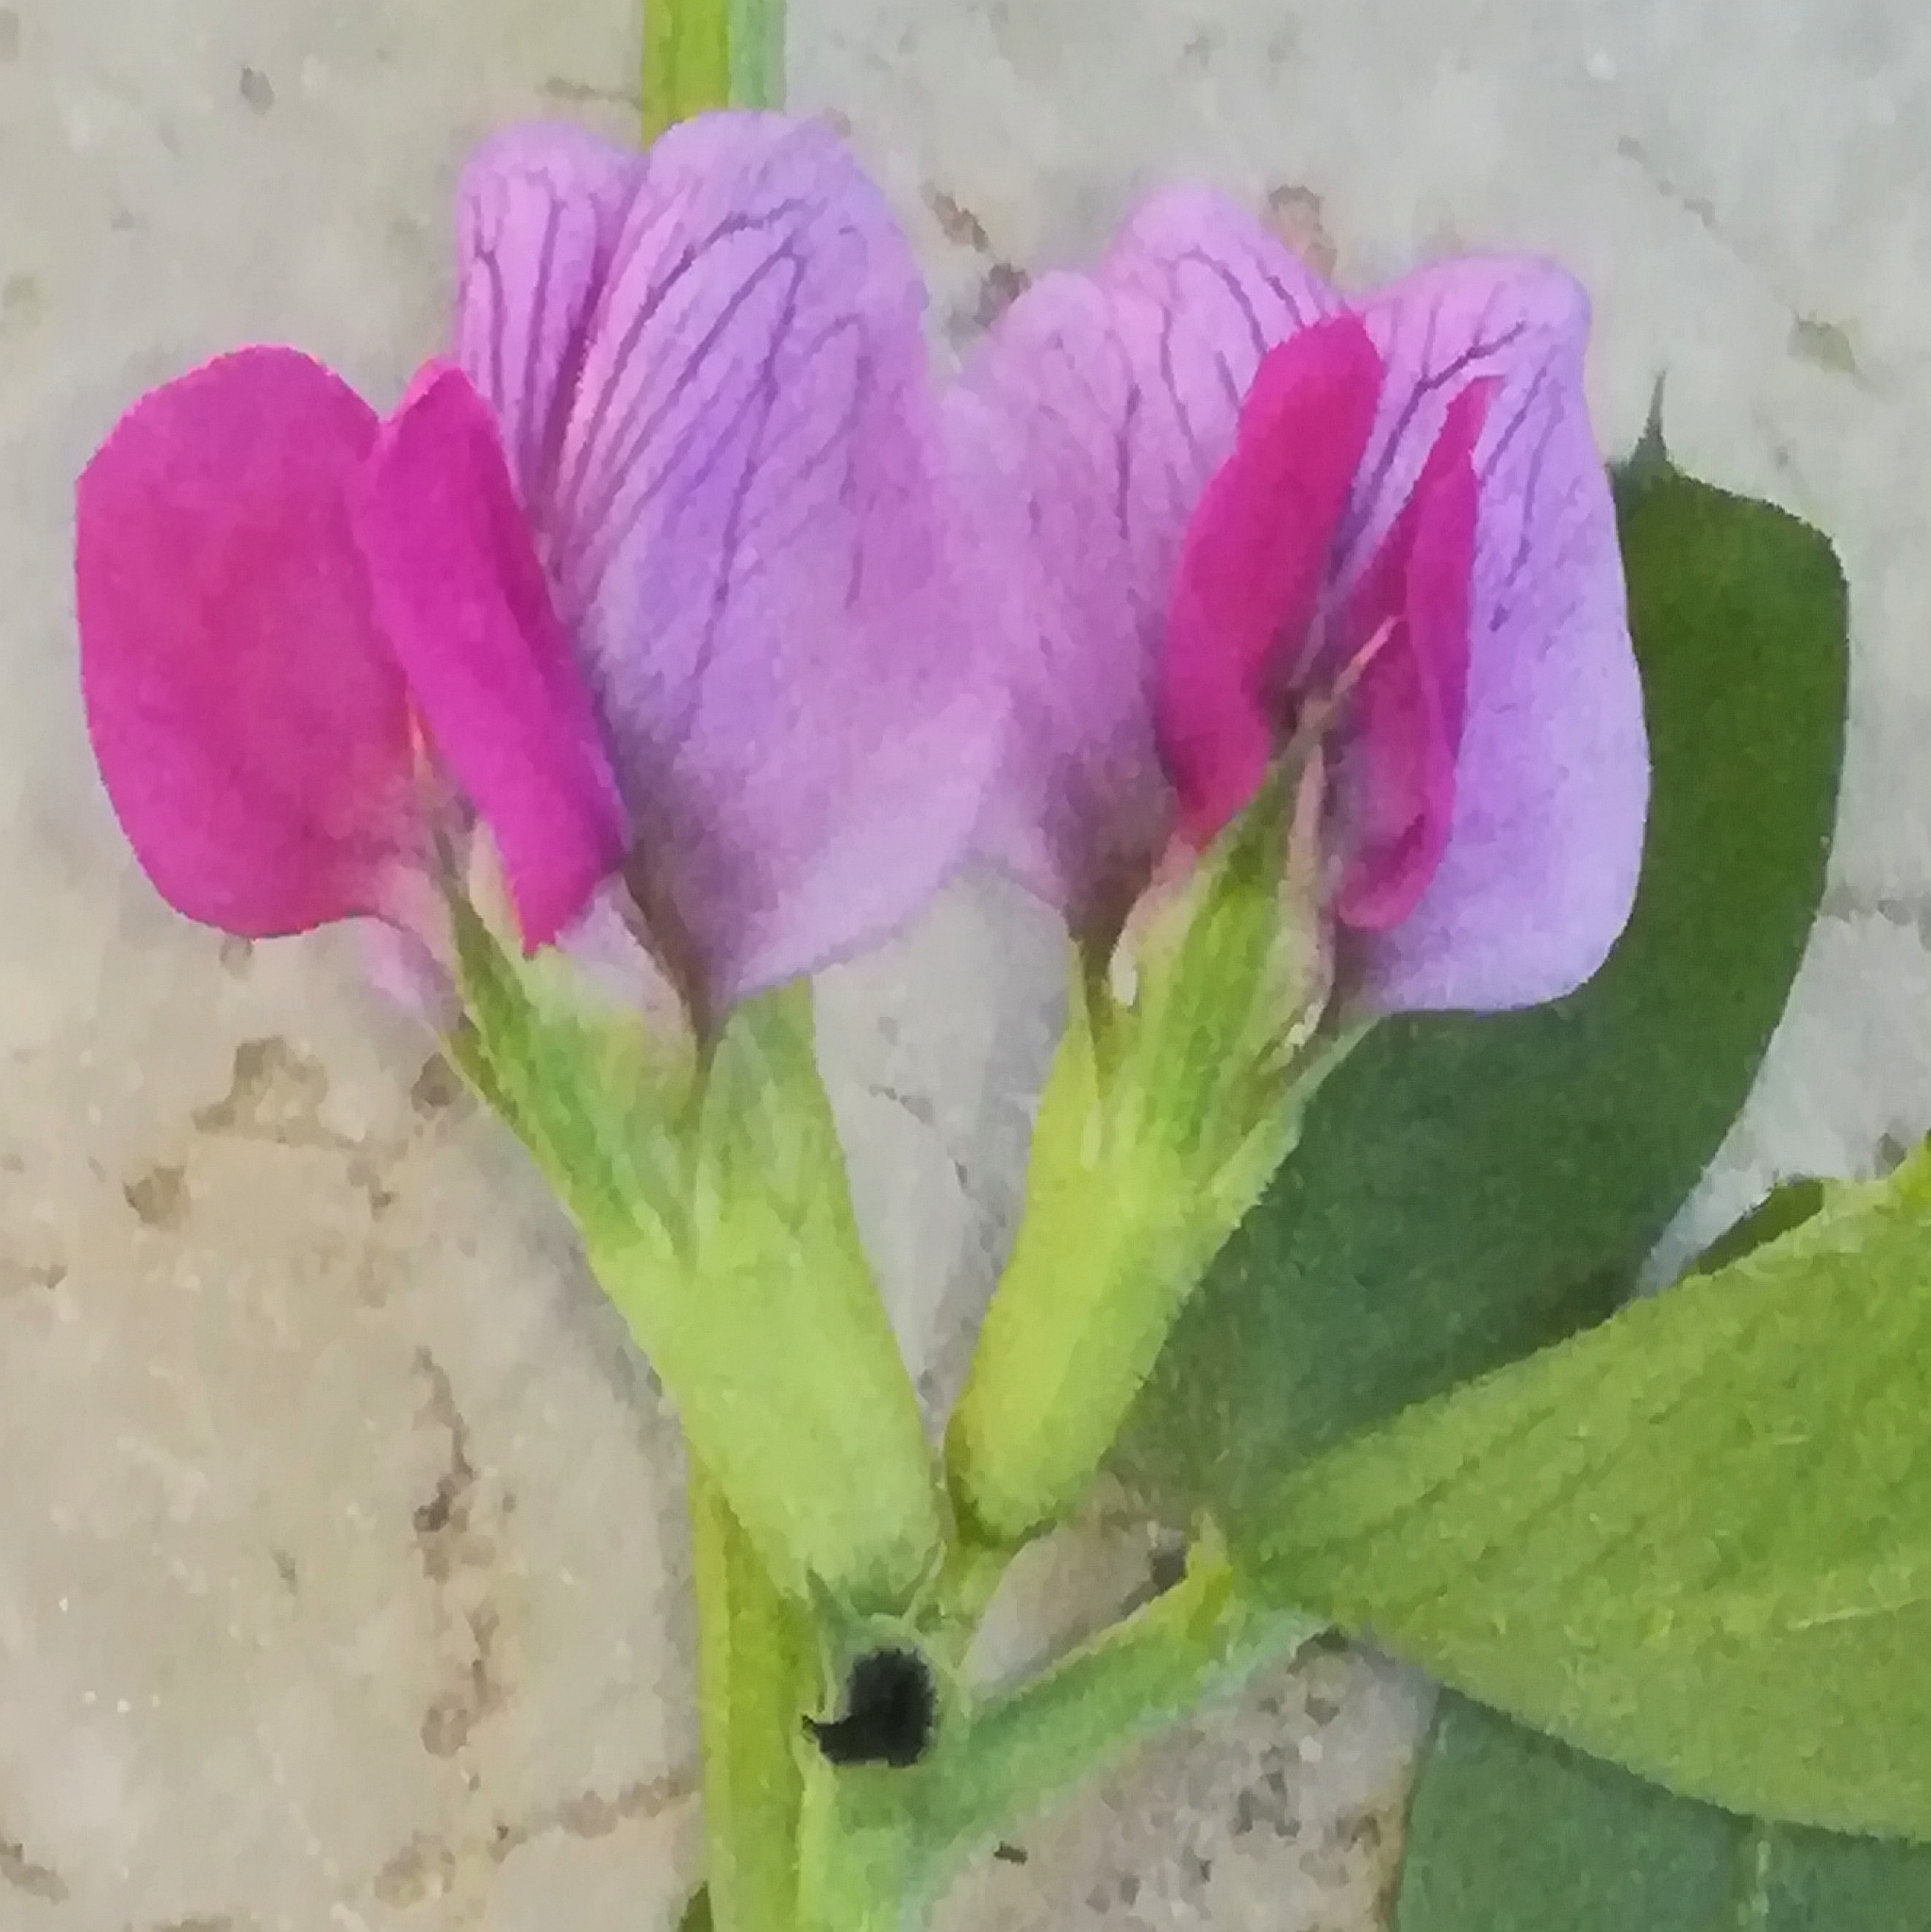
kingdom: Plantae
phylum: Tracheophyta
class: Magnoliopsida
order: Fabales
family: Fabaceae
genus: Vicia
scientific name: Vicia sativa
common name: Garden vetch
